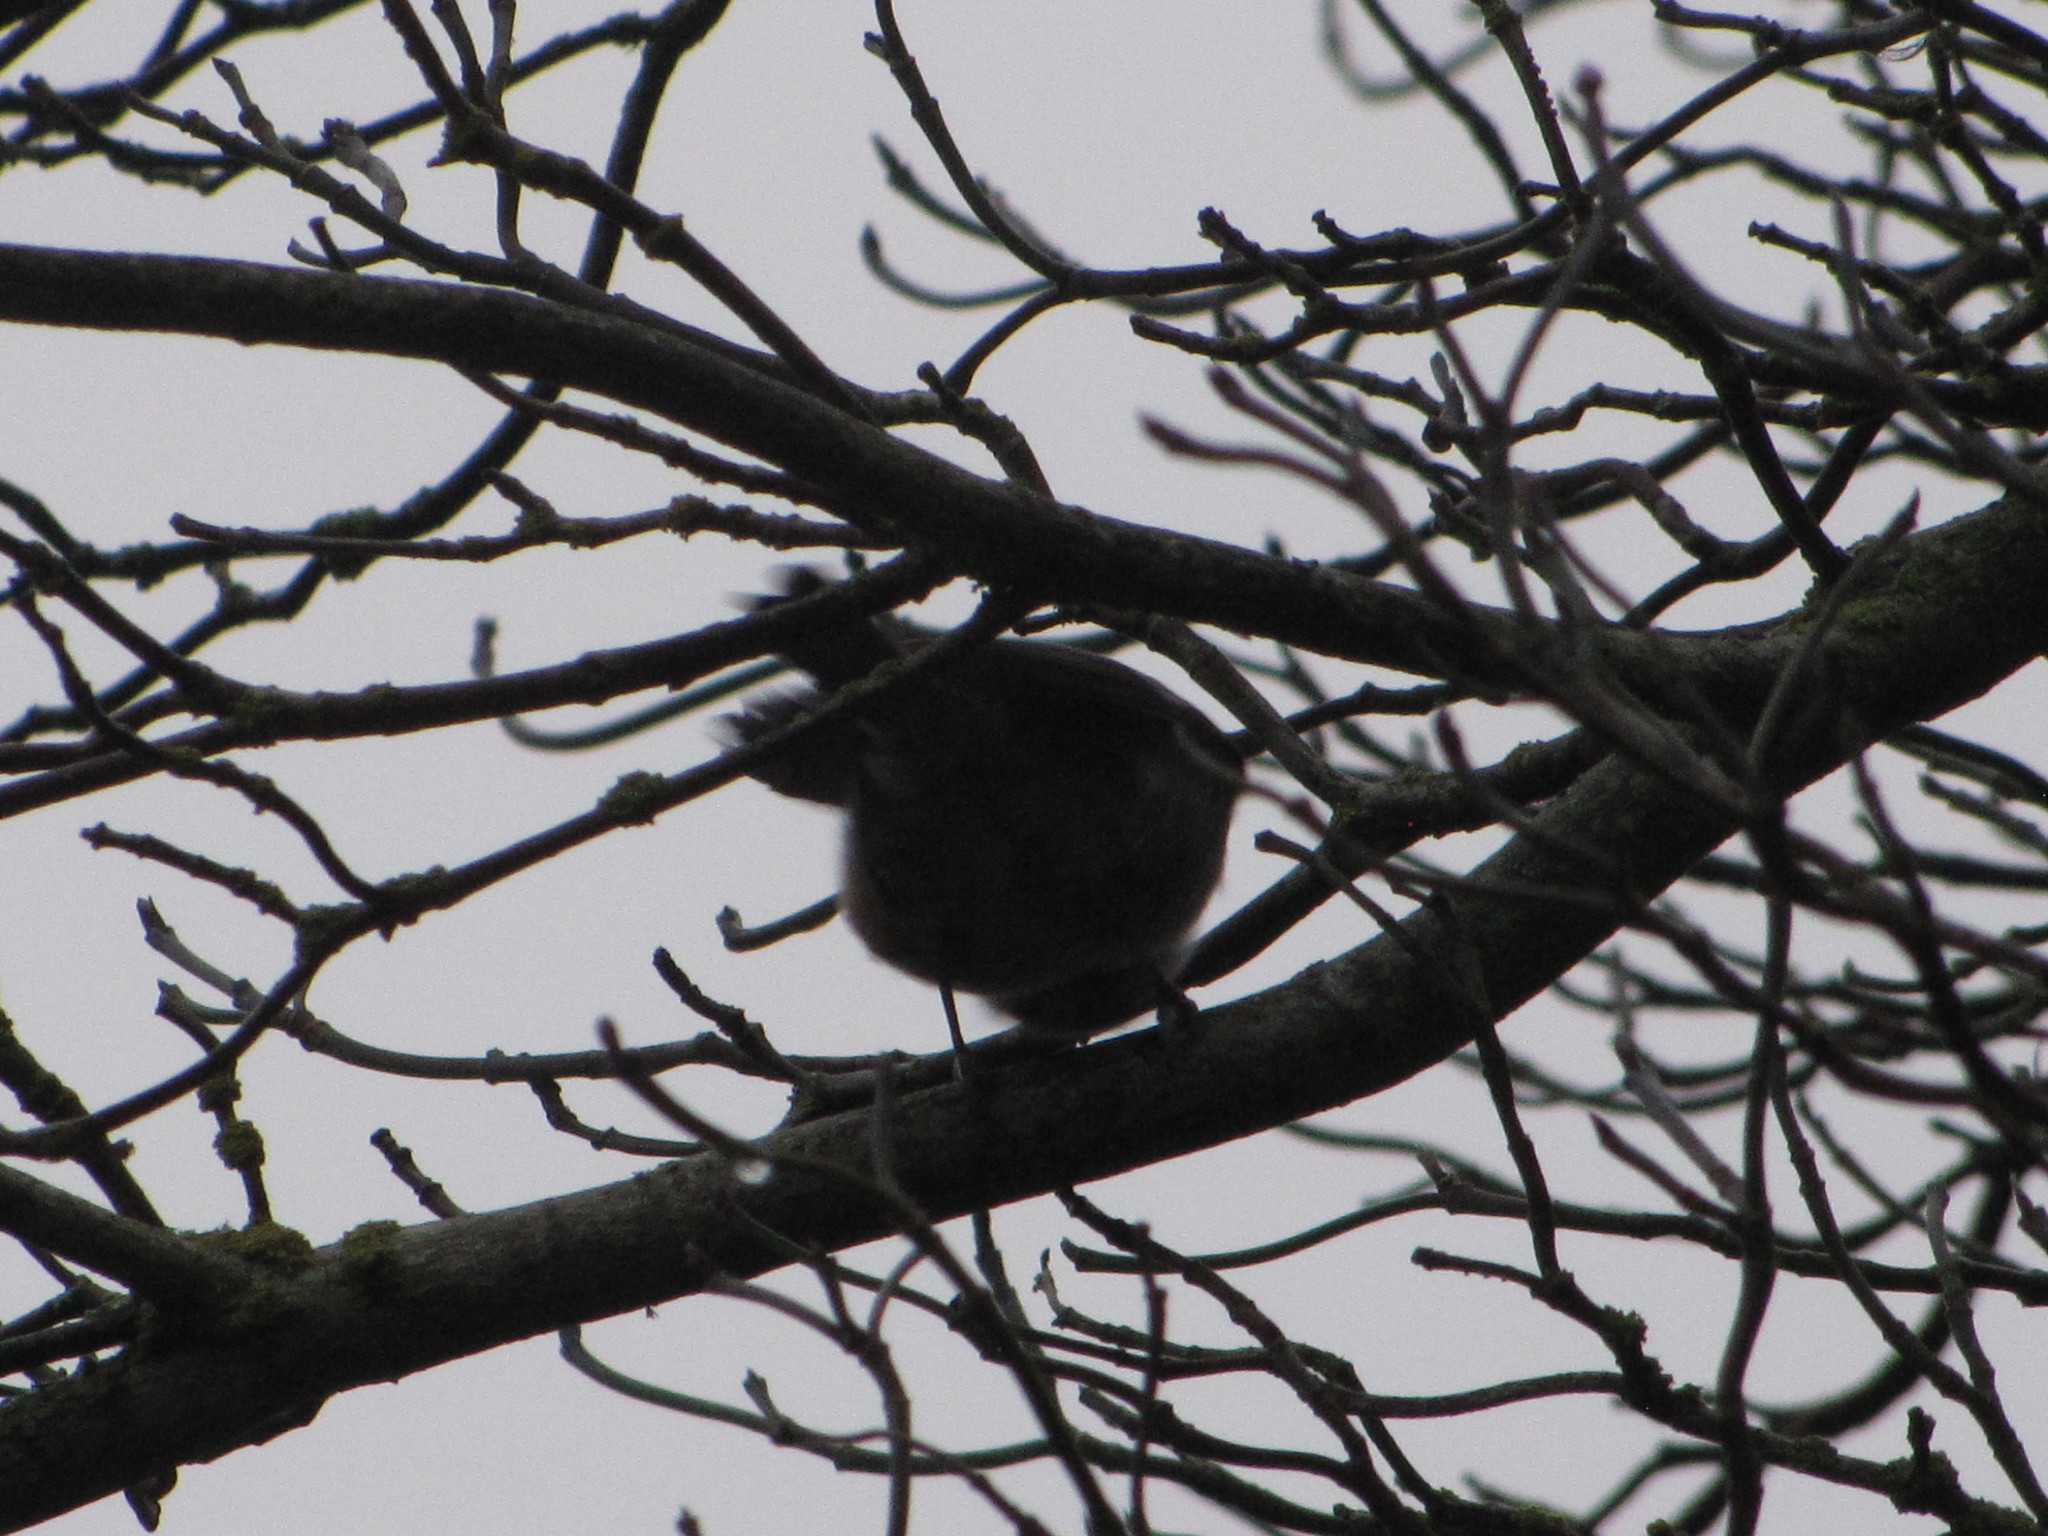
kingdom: Animalia
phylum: Chordata
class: Aves
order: Passeriformes
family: Paridae
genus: Poecile
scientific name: Poecile rufescens
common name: Chestnut-backed chickadee
